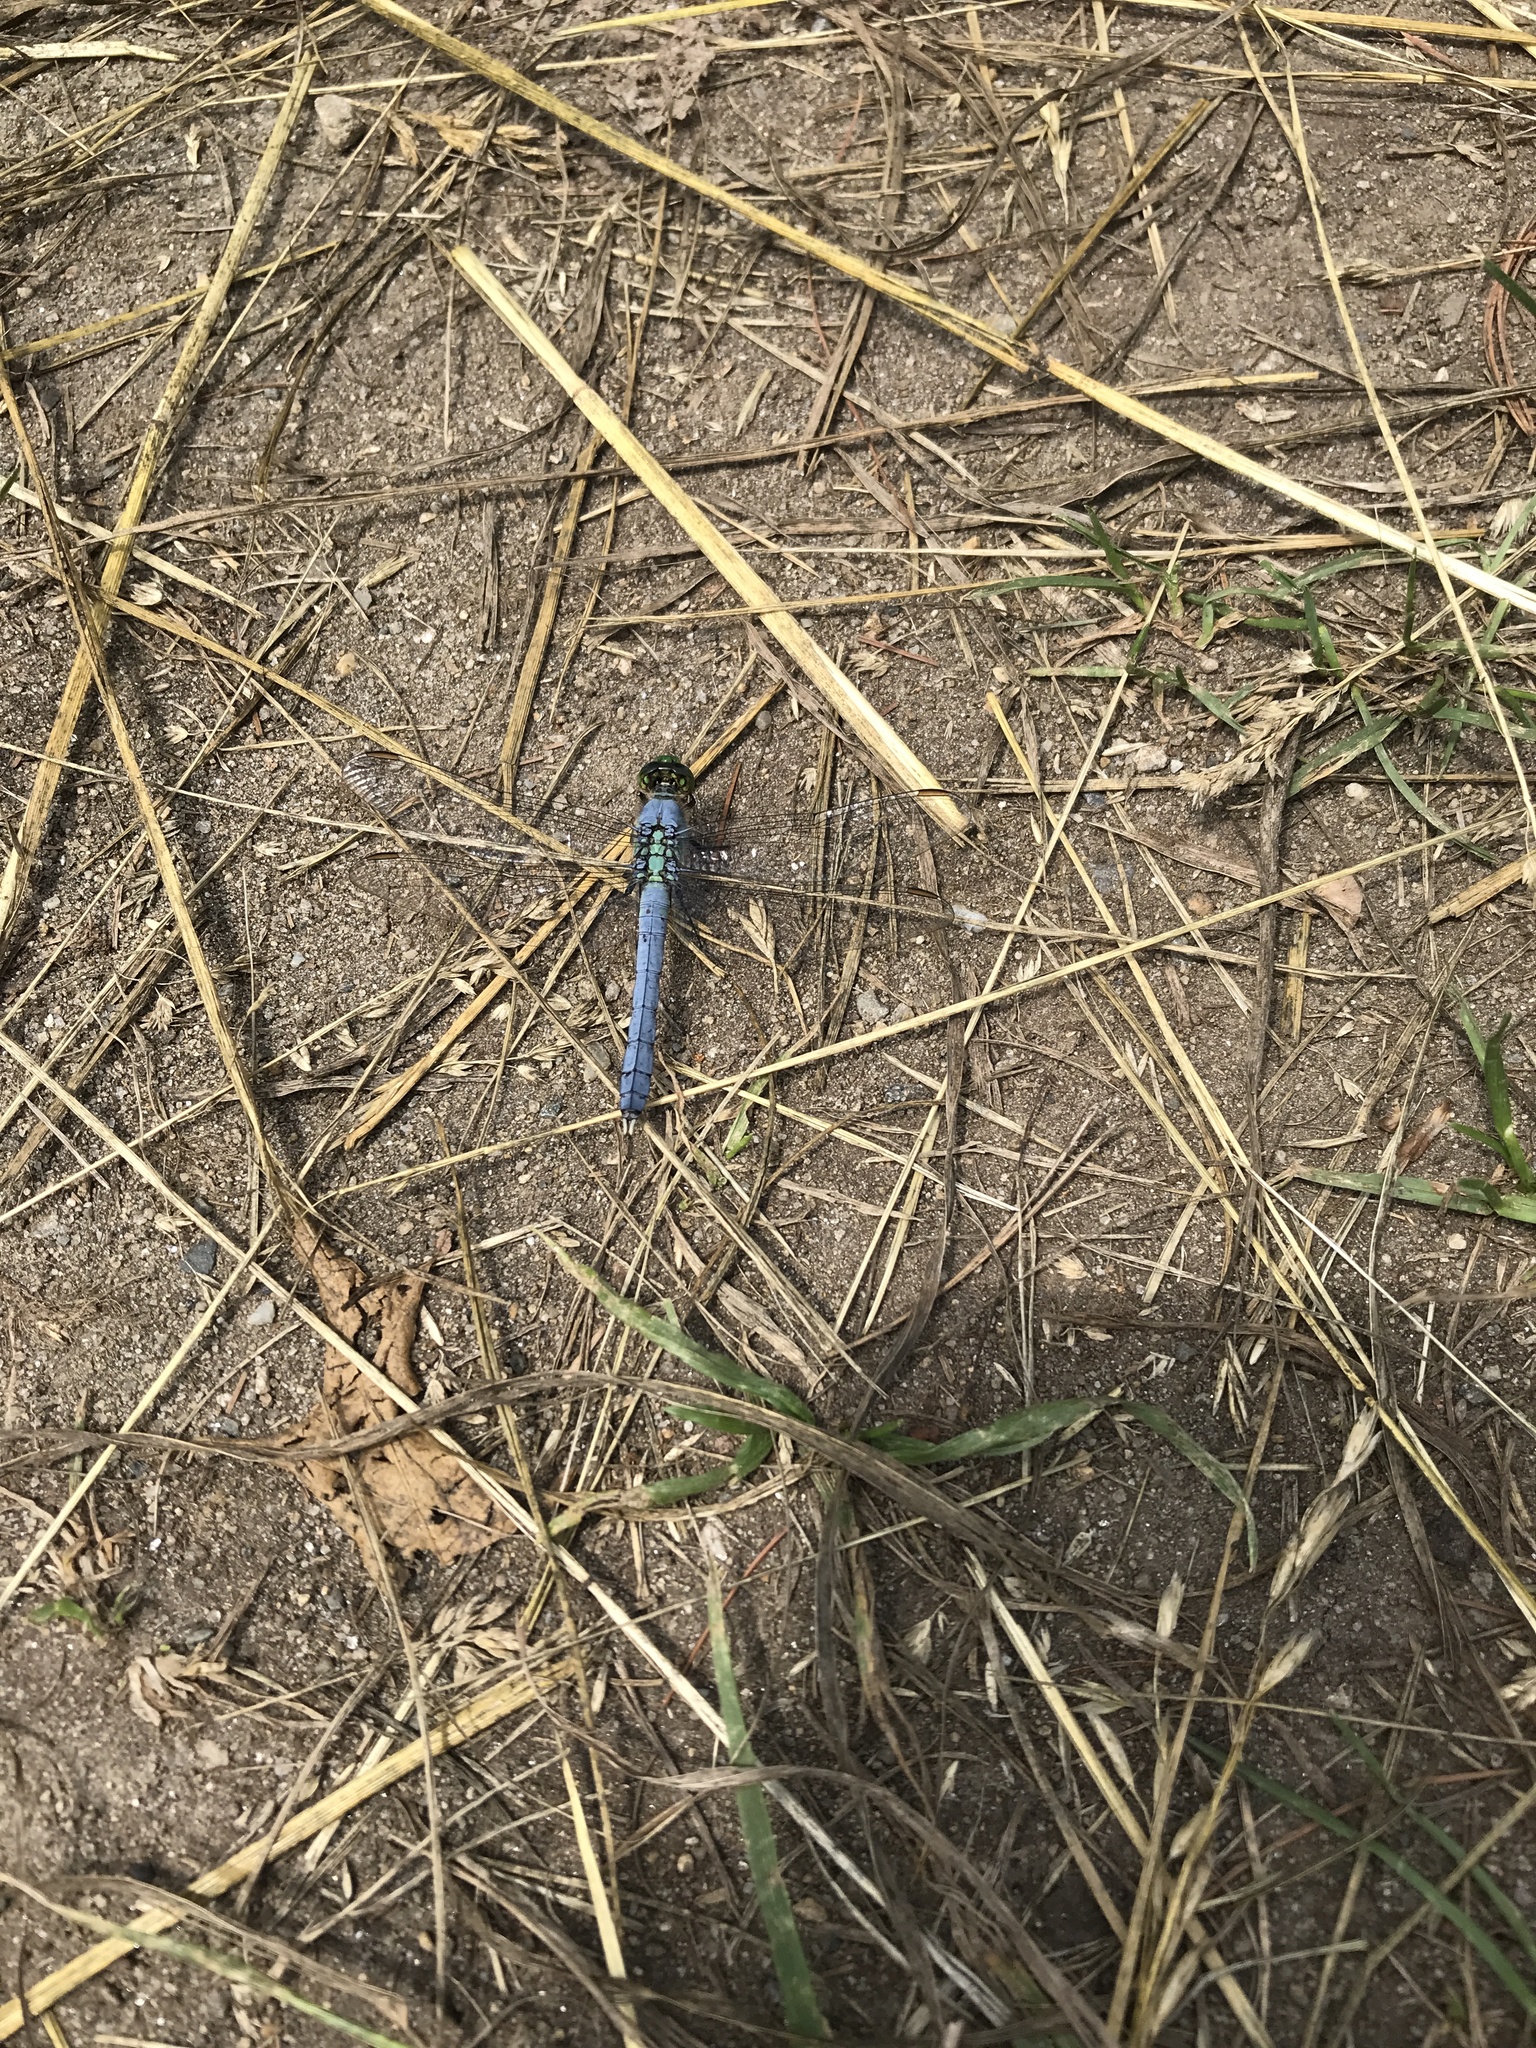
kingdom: Animalia
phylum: Arthropoda
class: Insecta
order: Odonata
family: Libellulidae
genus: Erythemis
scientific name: Erythemis simplicicollis
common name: Eastern pondhawk
